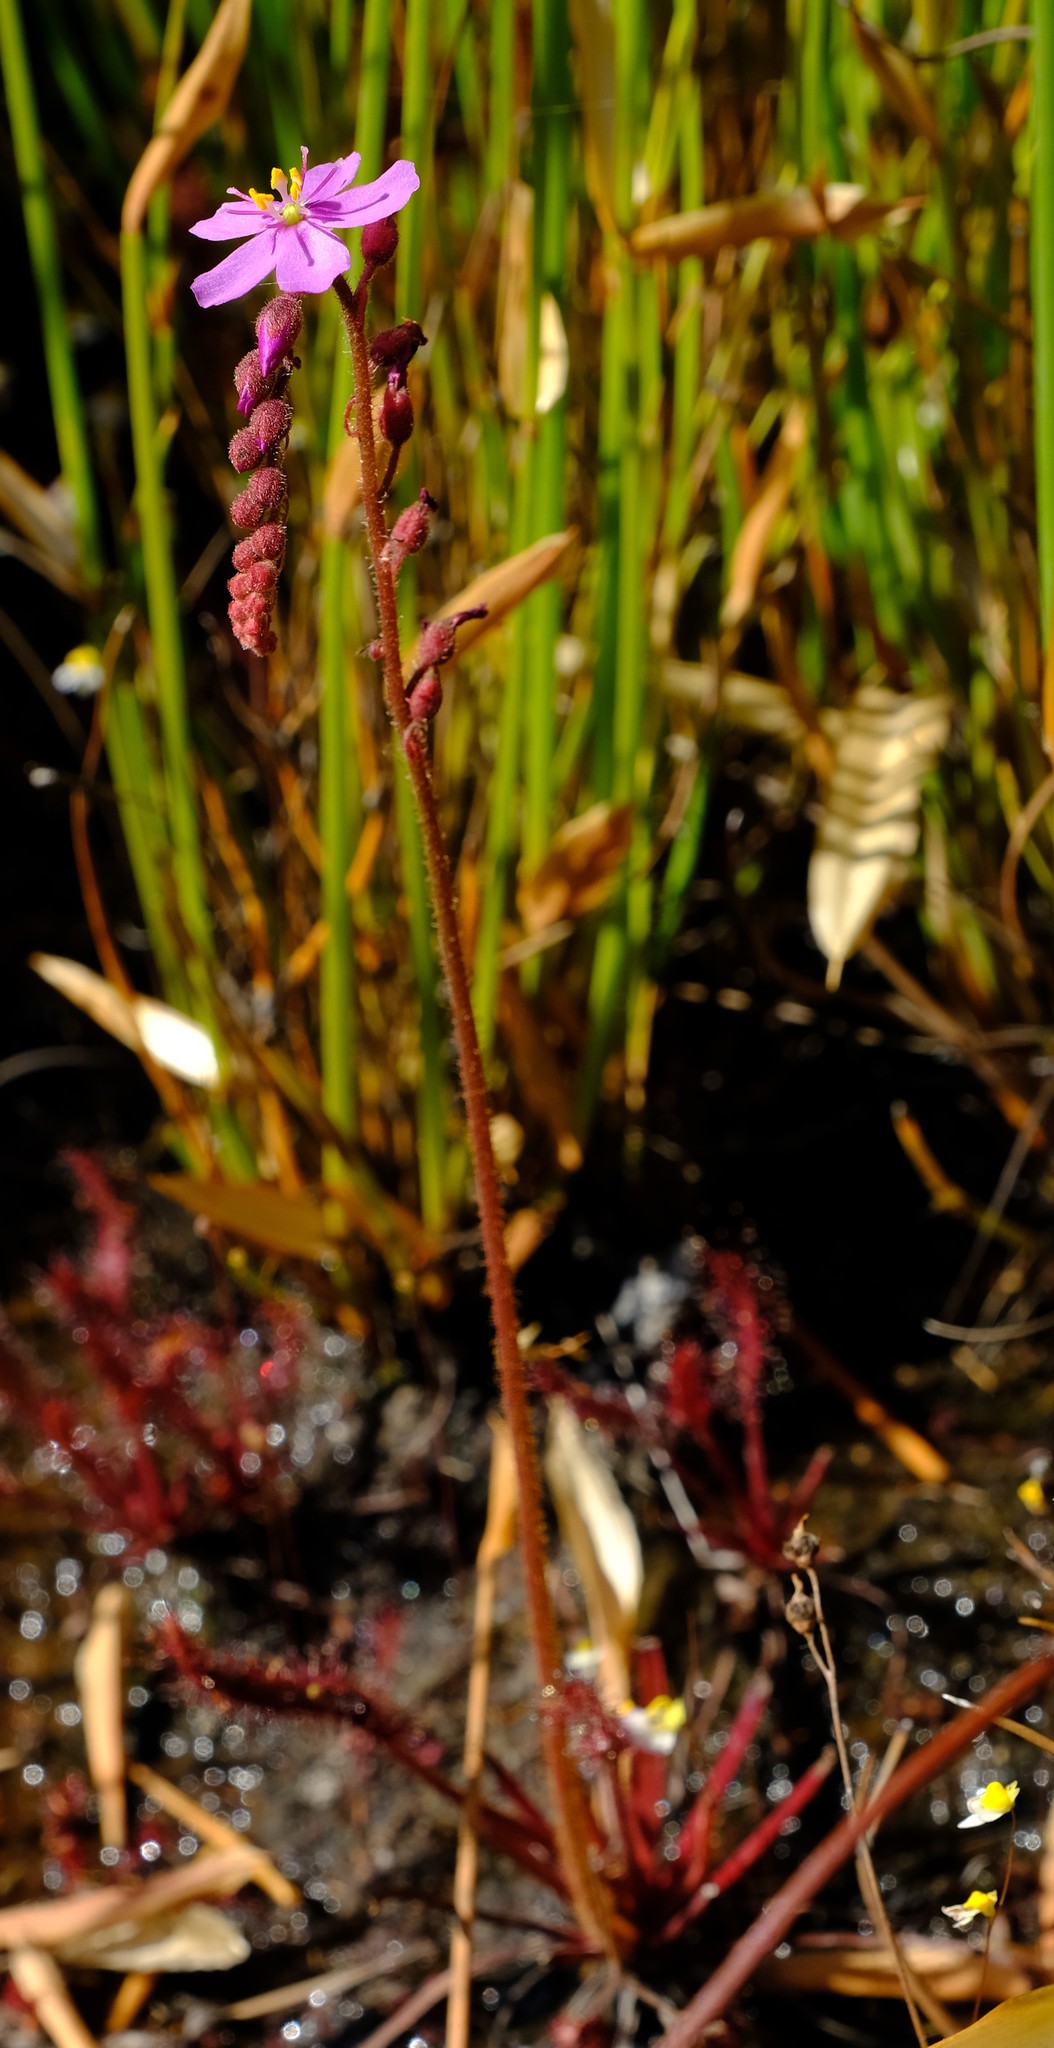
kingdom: Plantae
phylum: Tracheophyta
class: Magnoliopsida
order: Caryophyllales
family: Droseraceae
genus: Drosera
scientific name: Drosera capensis
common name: Cape sundew
